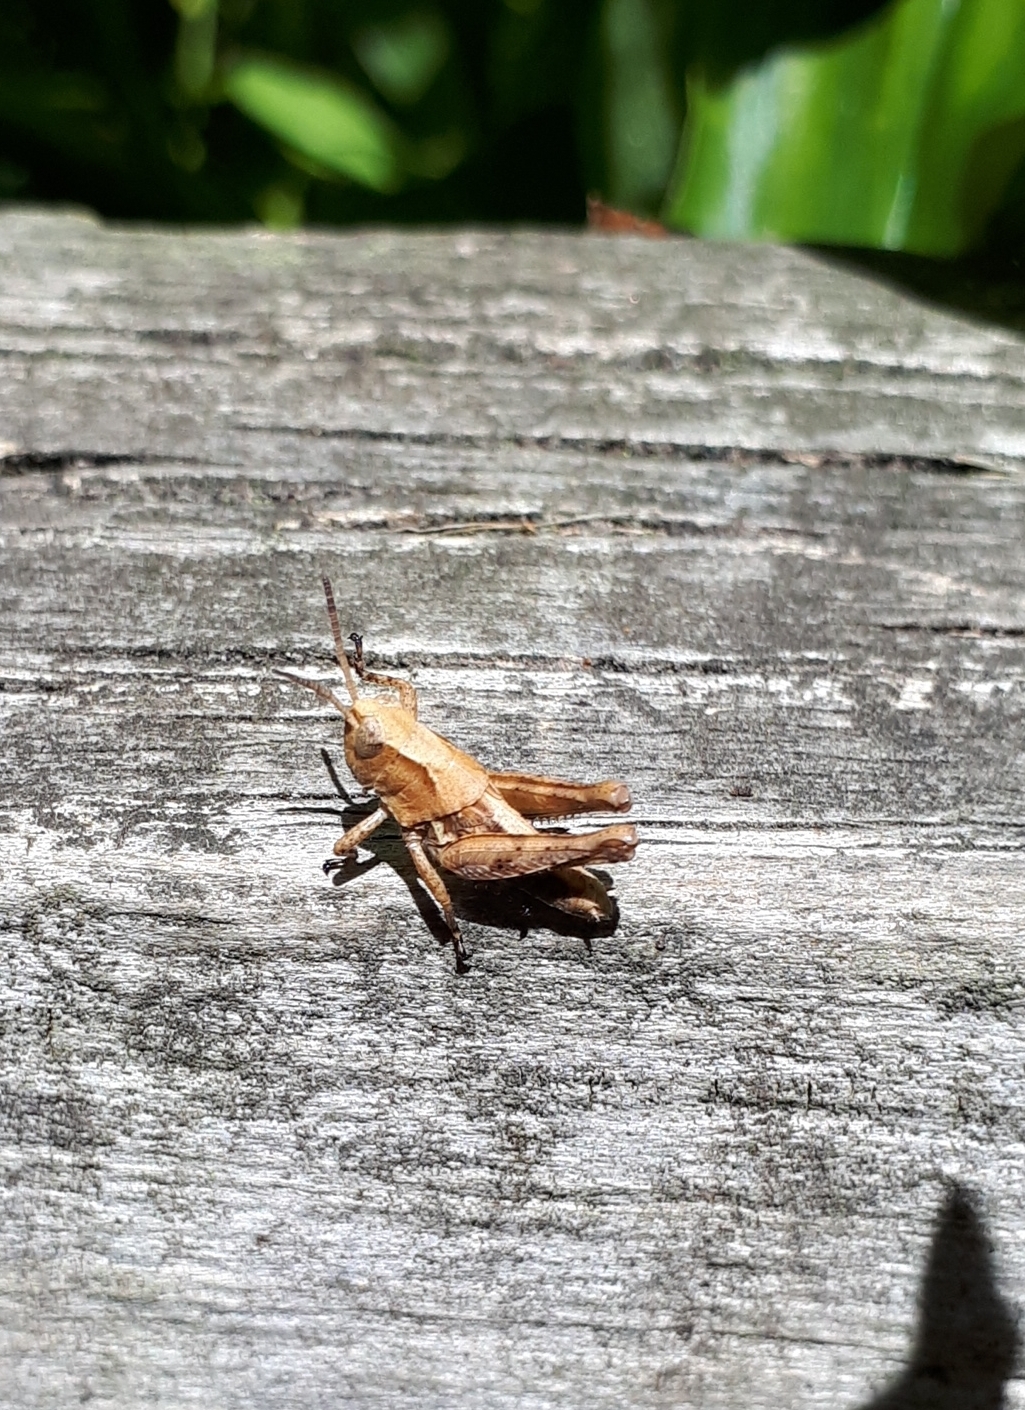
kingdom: Animalia
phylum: Arthropoda
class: Insecta
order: Orthoptera
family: Acrididae
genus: Phaulacridium
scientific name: Phaulacridium marginale
